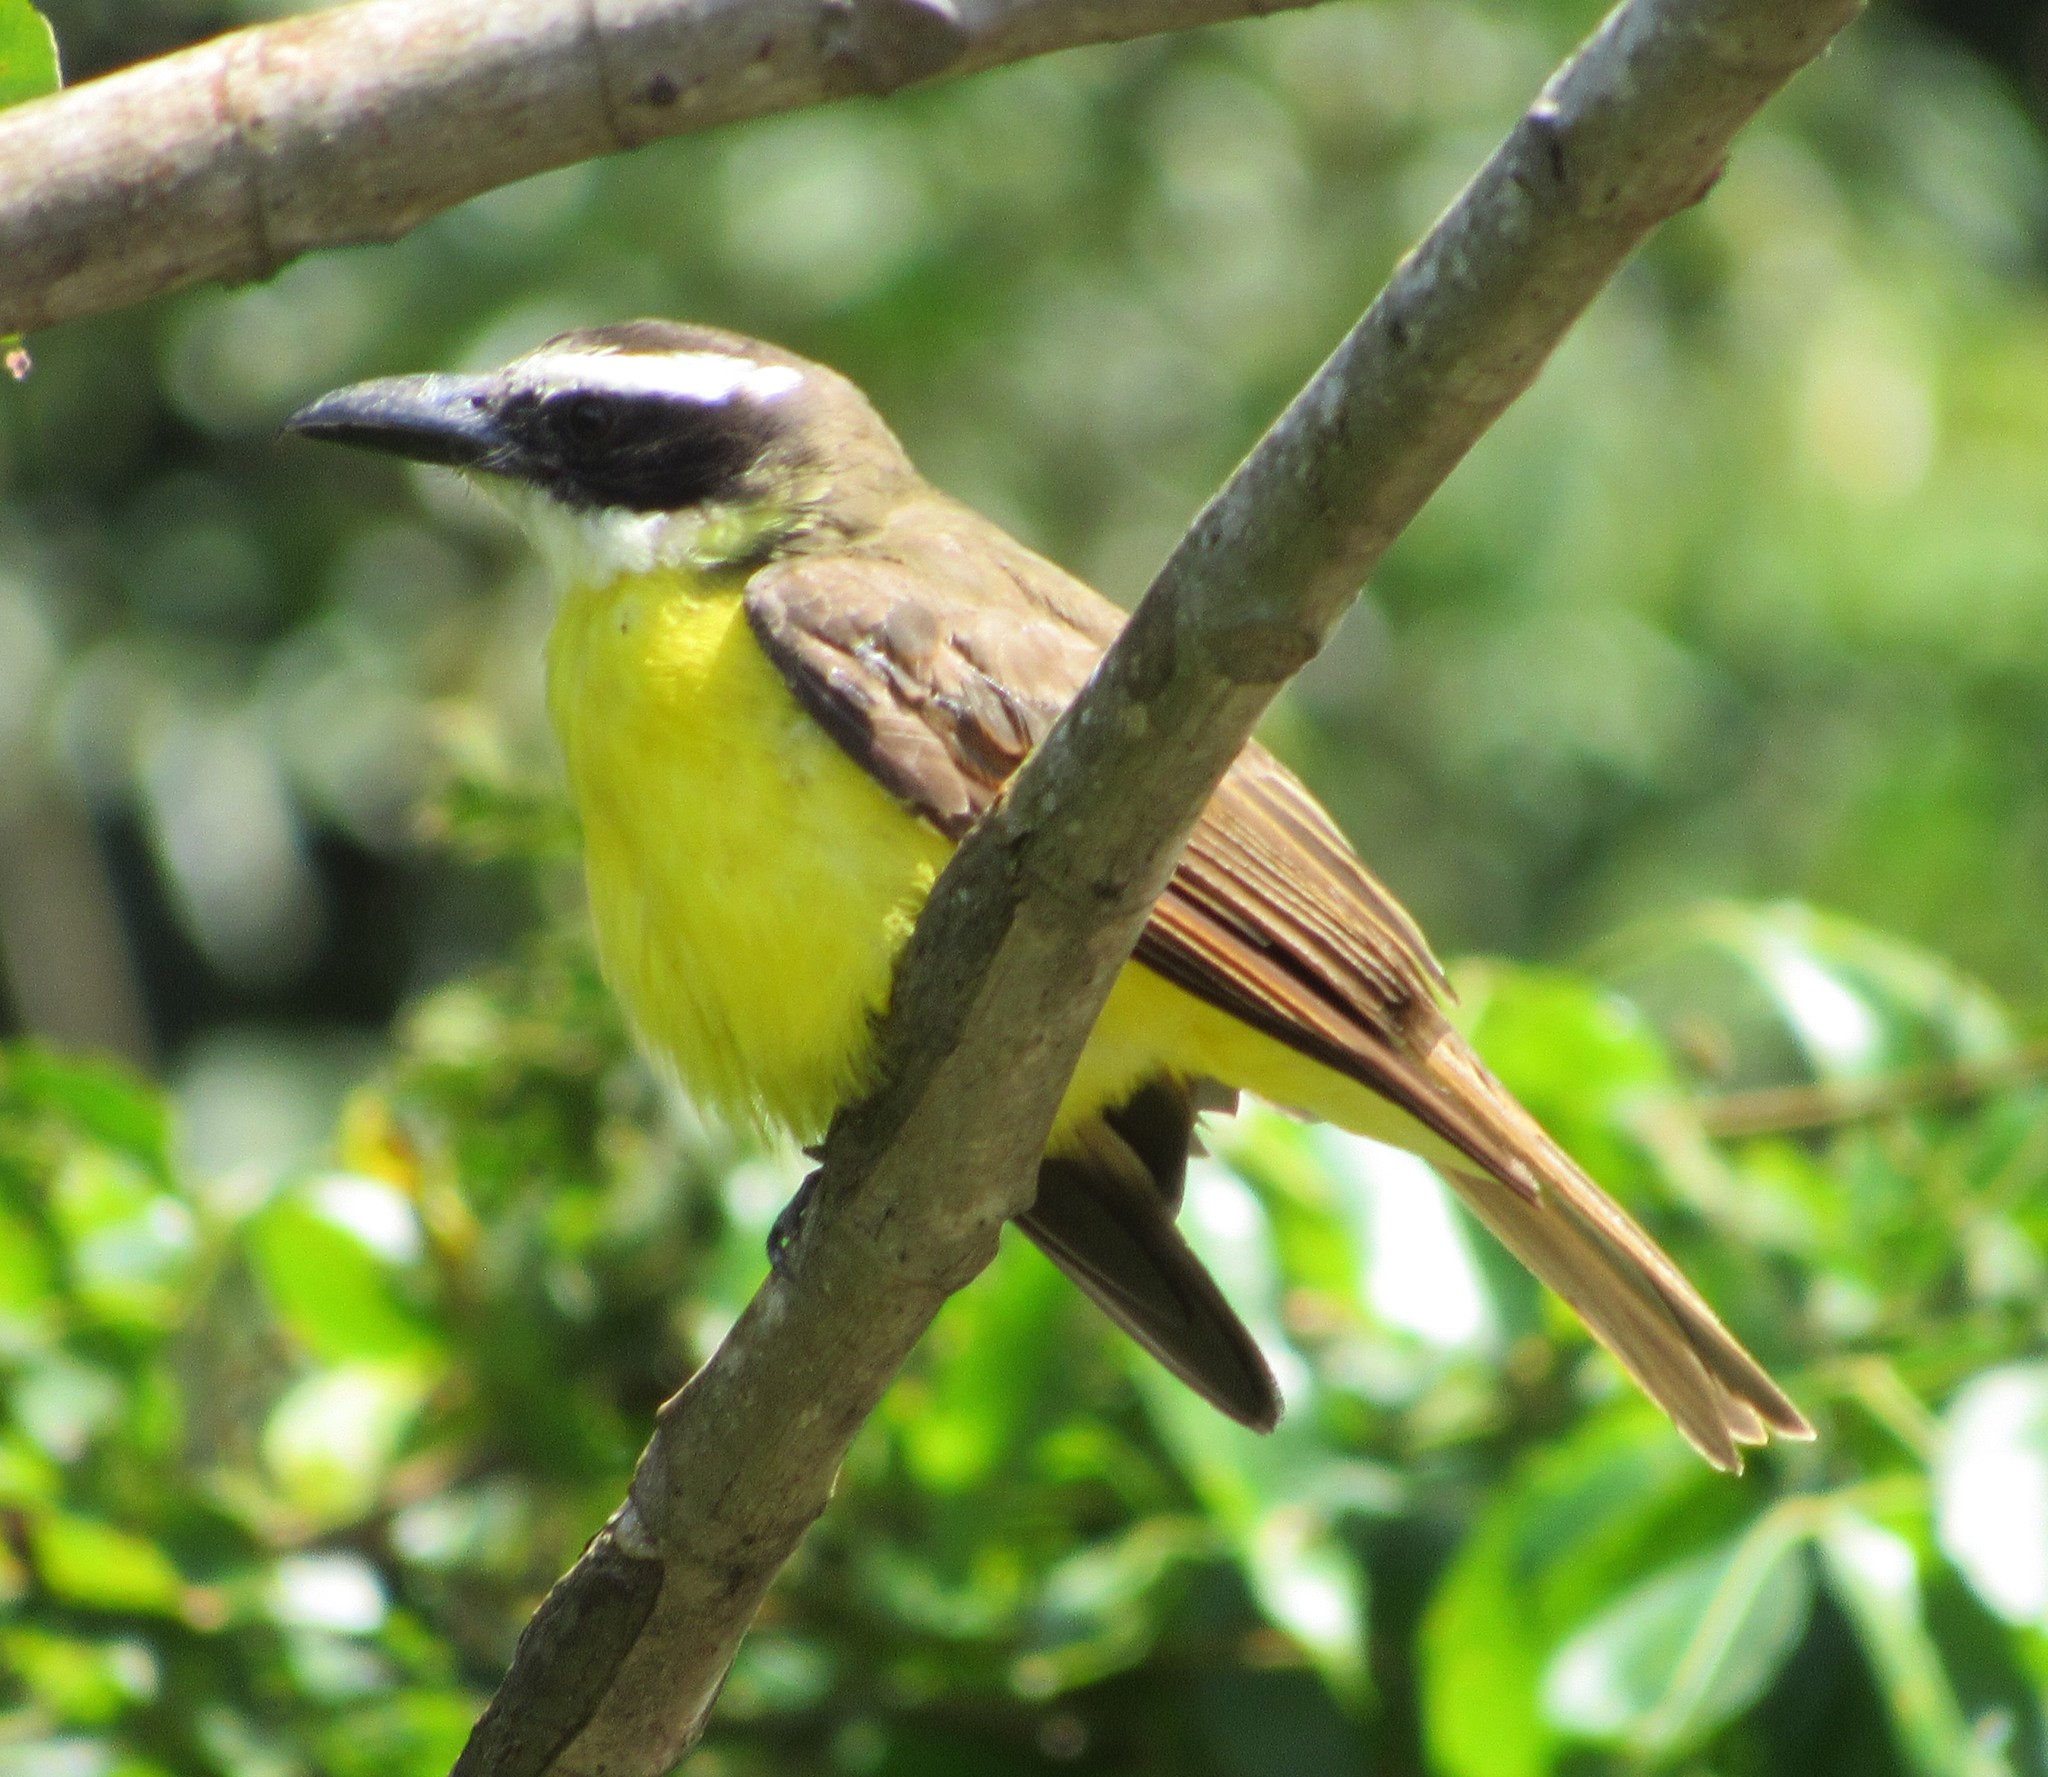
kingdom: Animalia
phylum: Chordata
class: Aves
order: Passeriformes
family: Tyrannidae
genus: Megarynchus
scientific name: Megarynchus pitangua
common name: Boat-billed flycatcher
